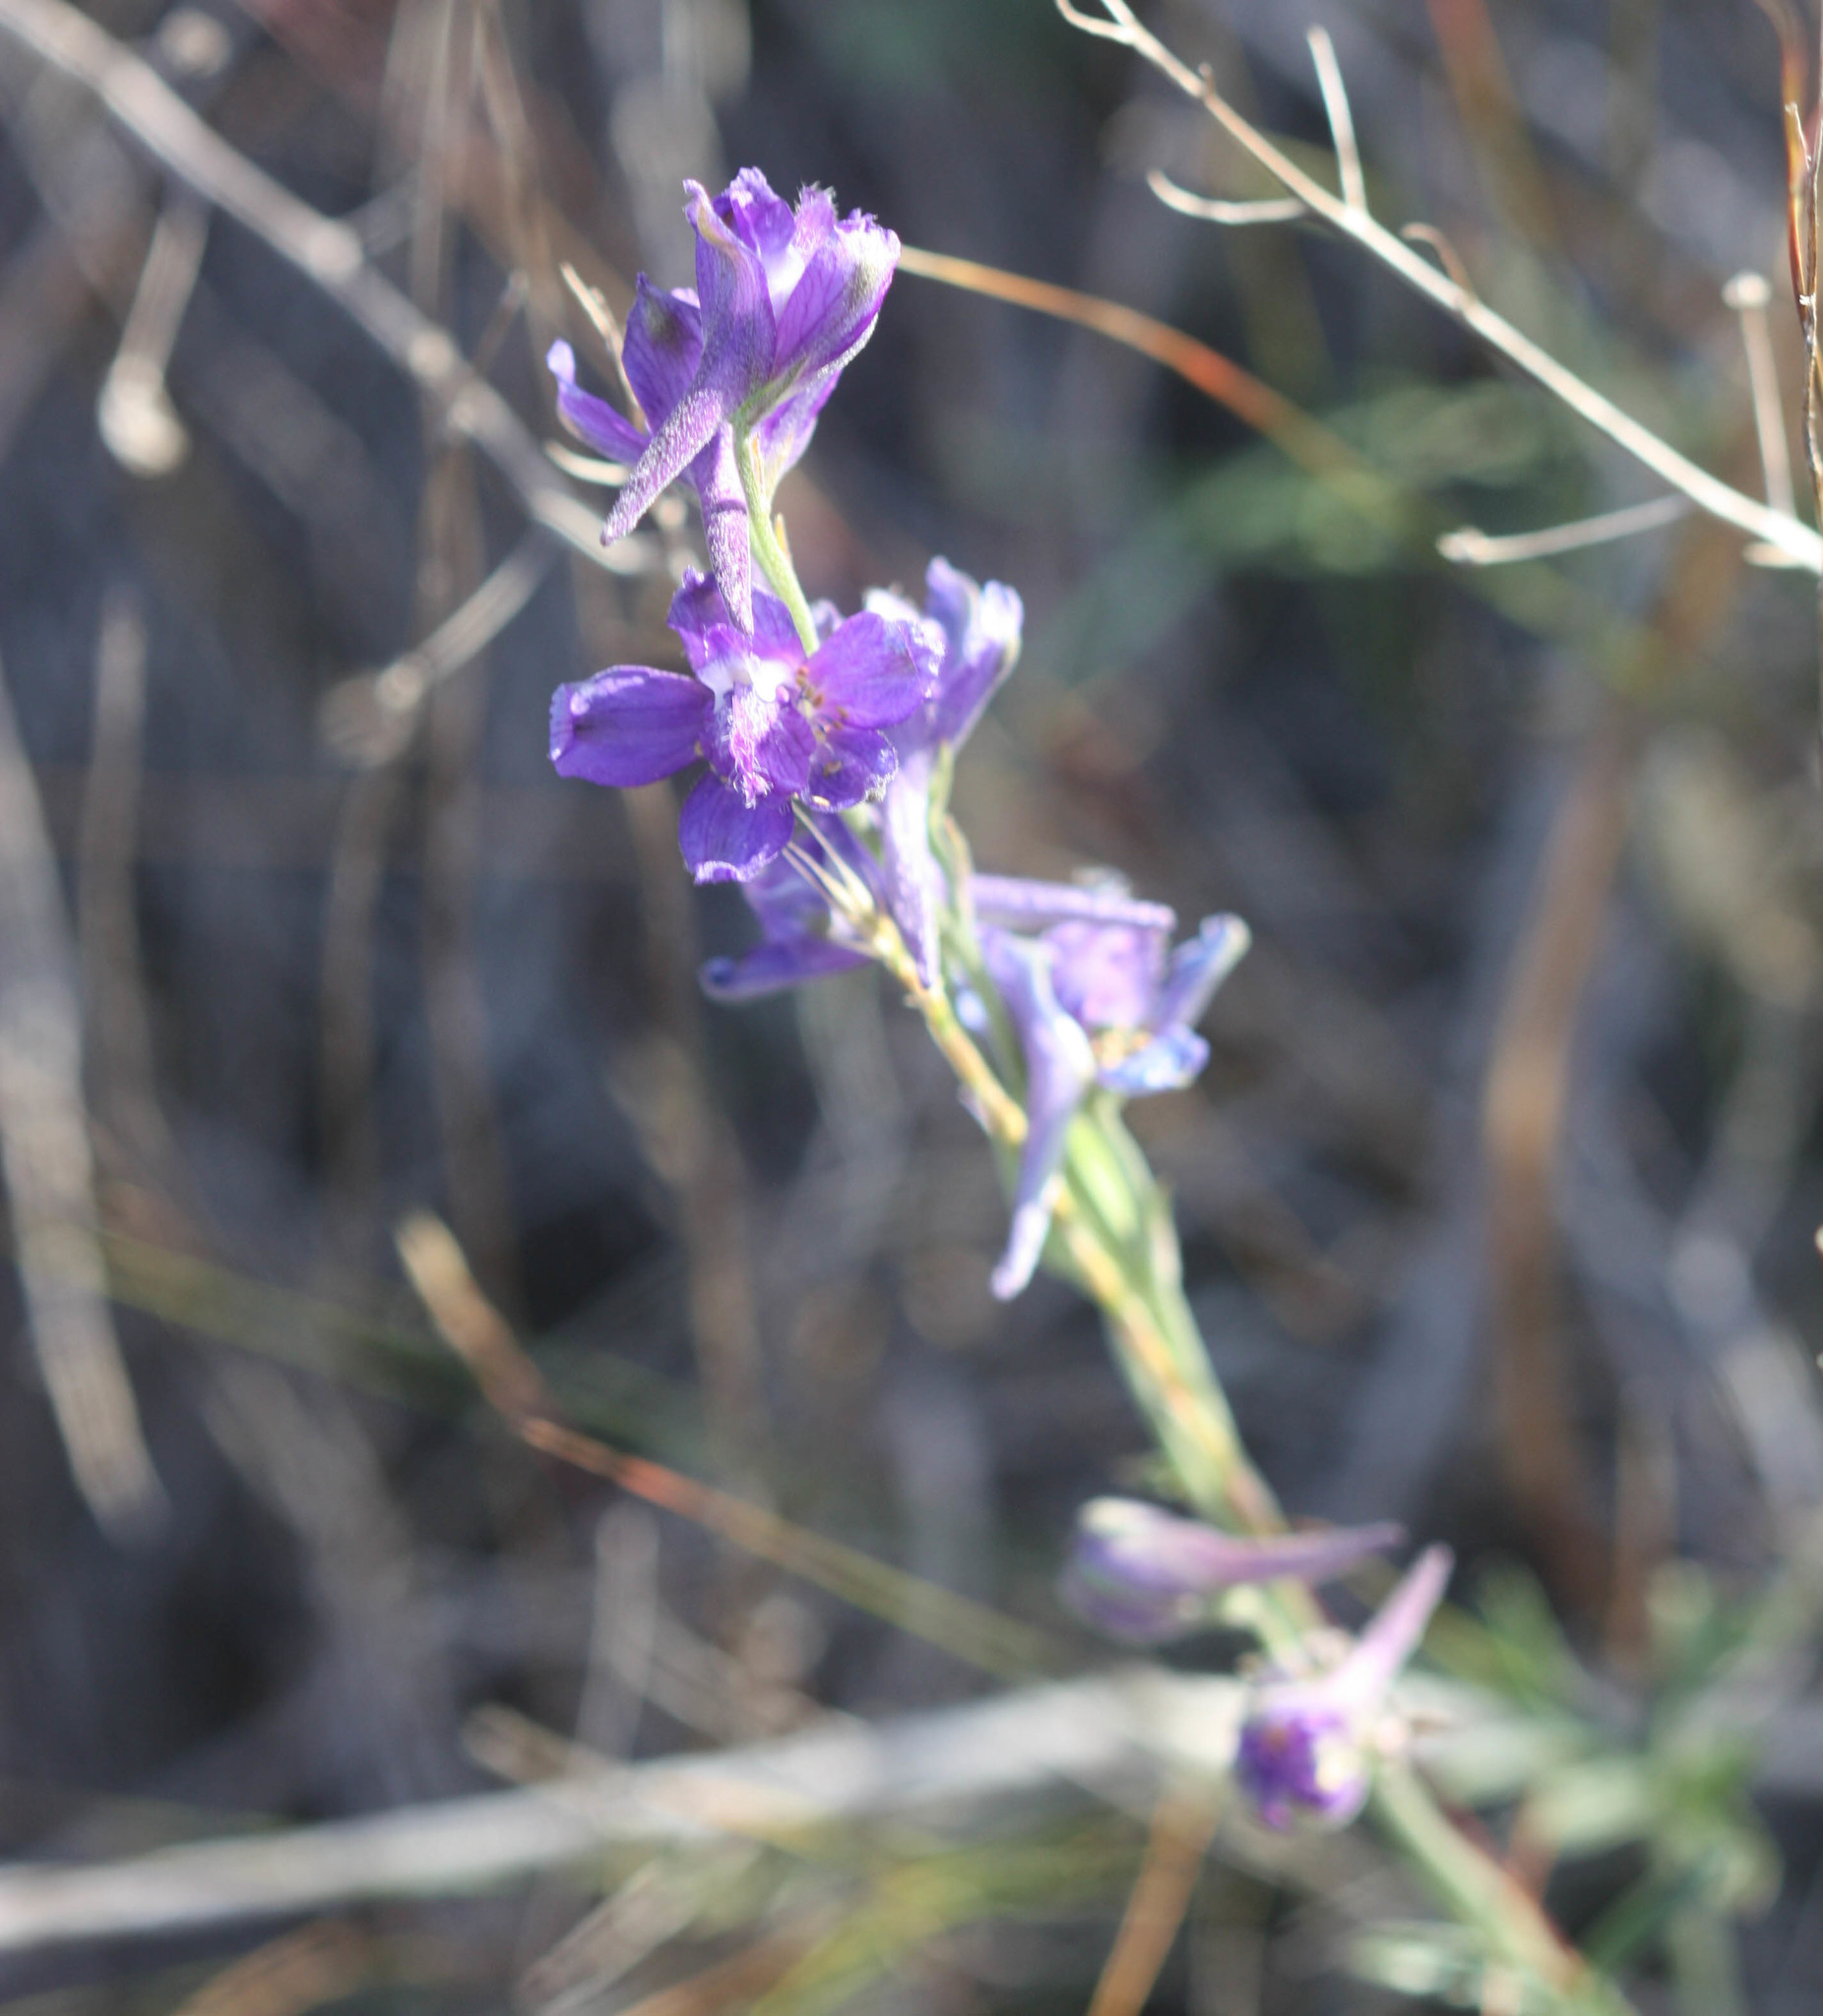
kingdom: Plantae
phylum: Tracheophyta
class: Magnoliopsida
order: Ranunculales
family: Ranunculaceae
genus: Delphinium
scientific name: Delphinium hesperium
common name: Western larkspur
